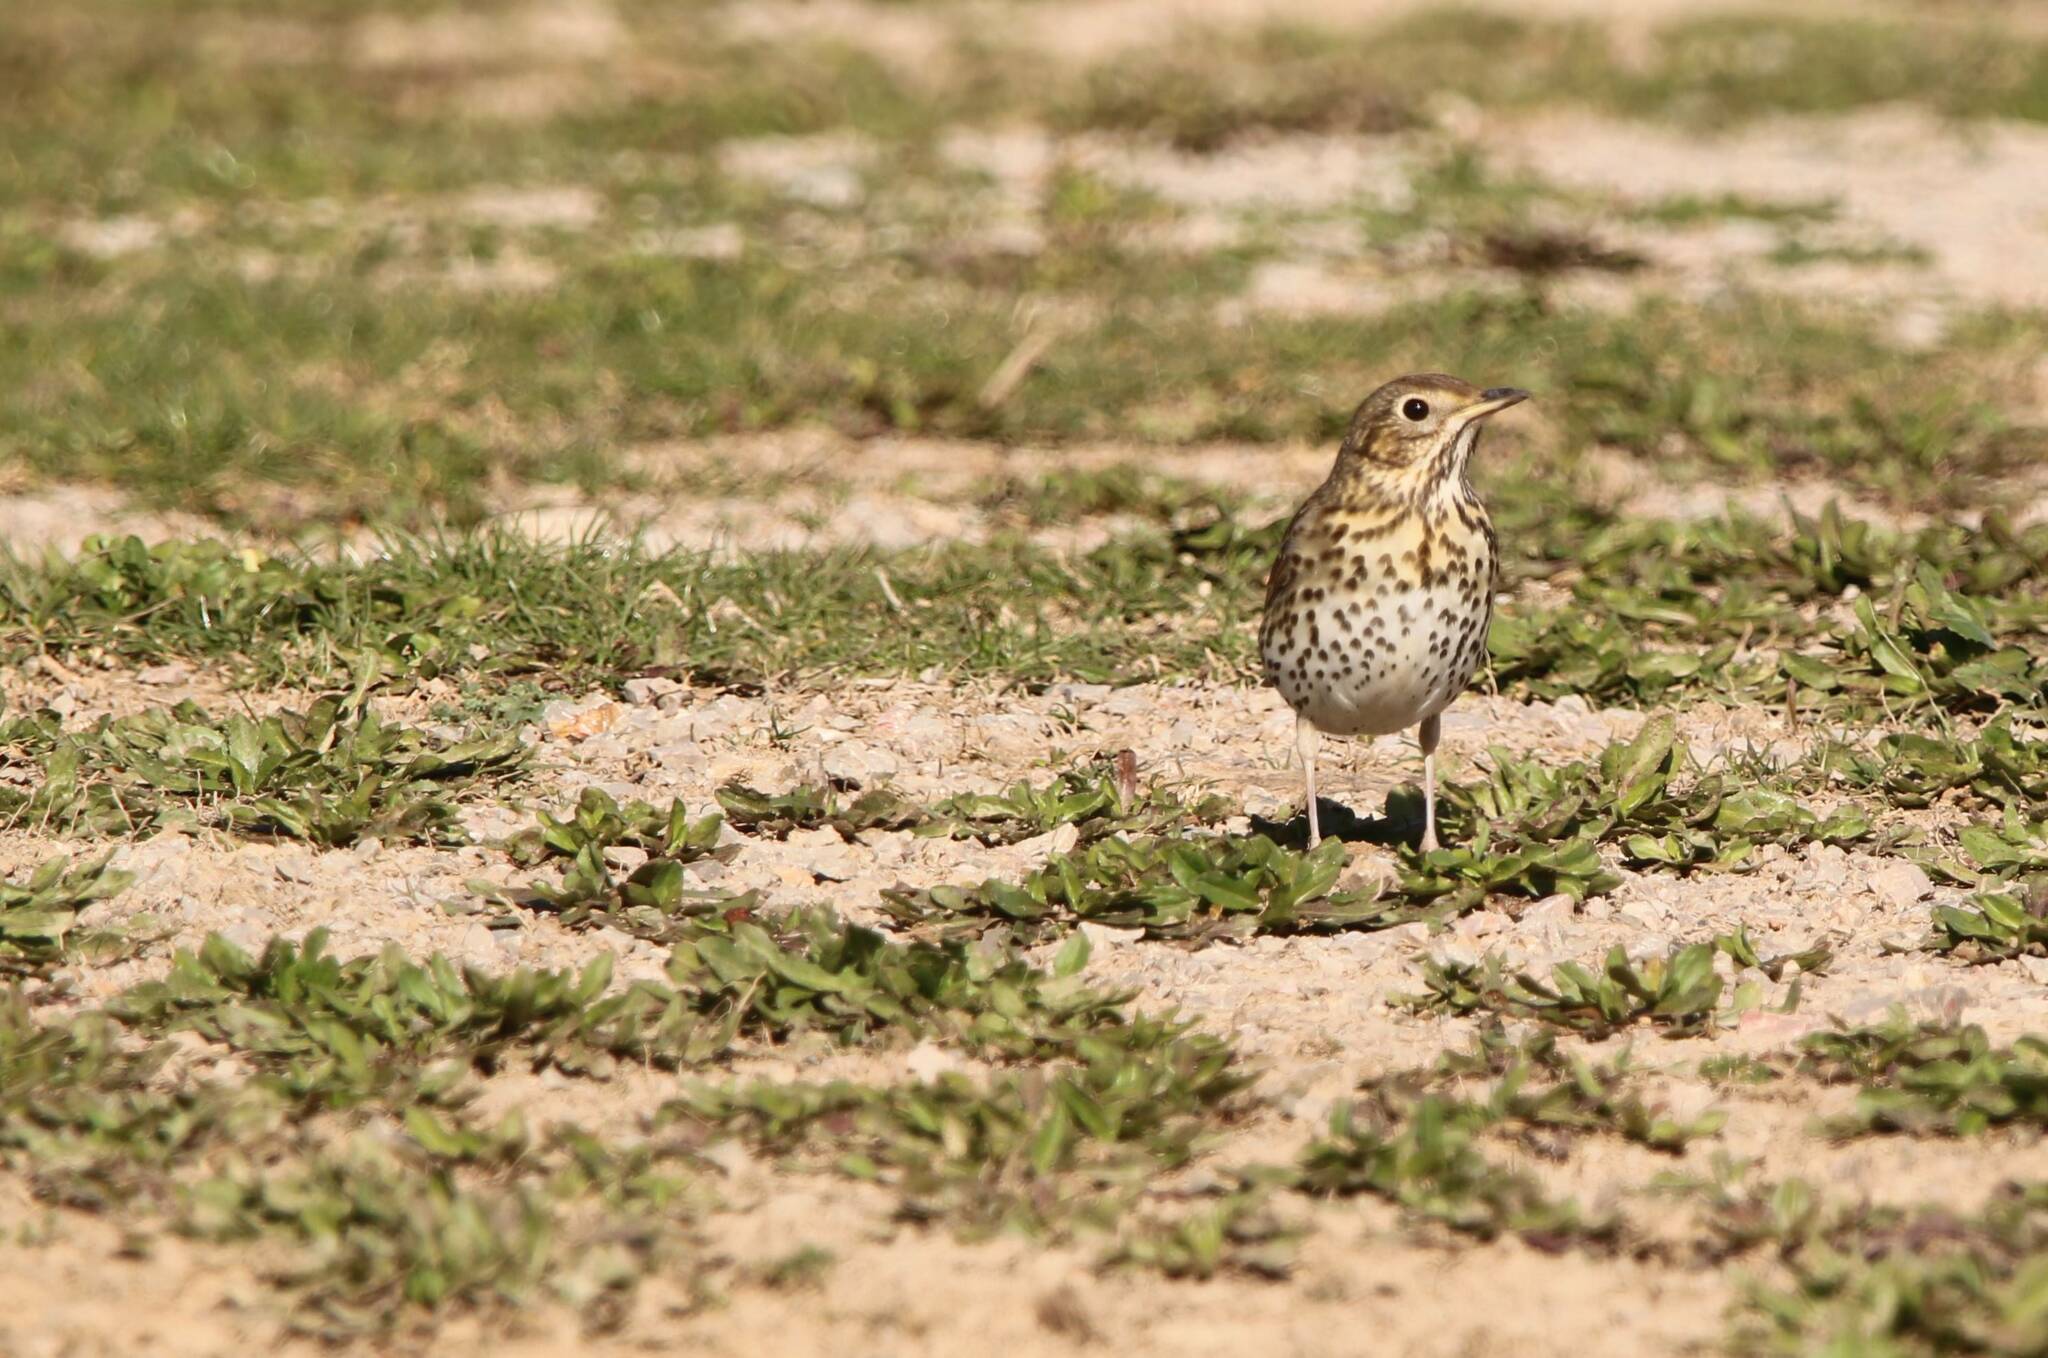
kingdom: Animalia
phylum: Chordata
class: Aves
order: Passeriformes
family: Turdidae
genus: Turdus
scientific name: Turdus philomelos
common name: Song thrush
